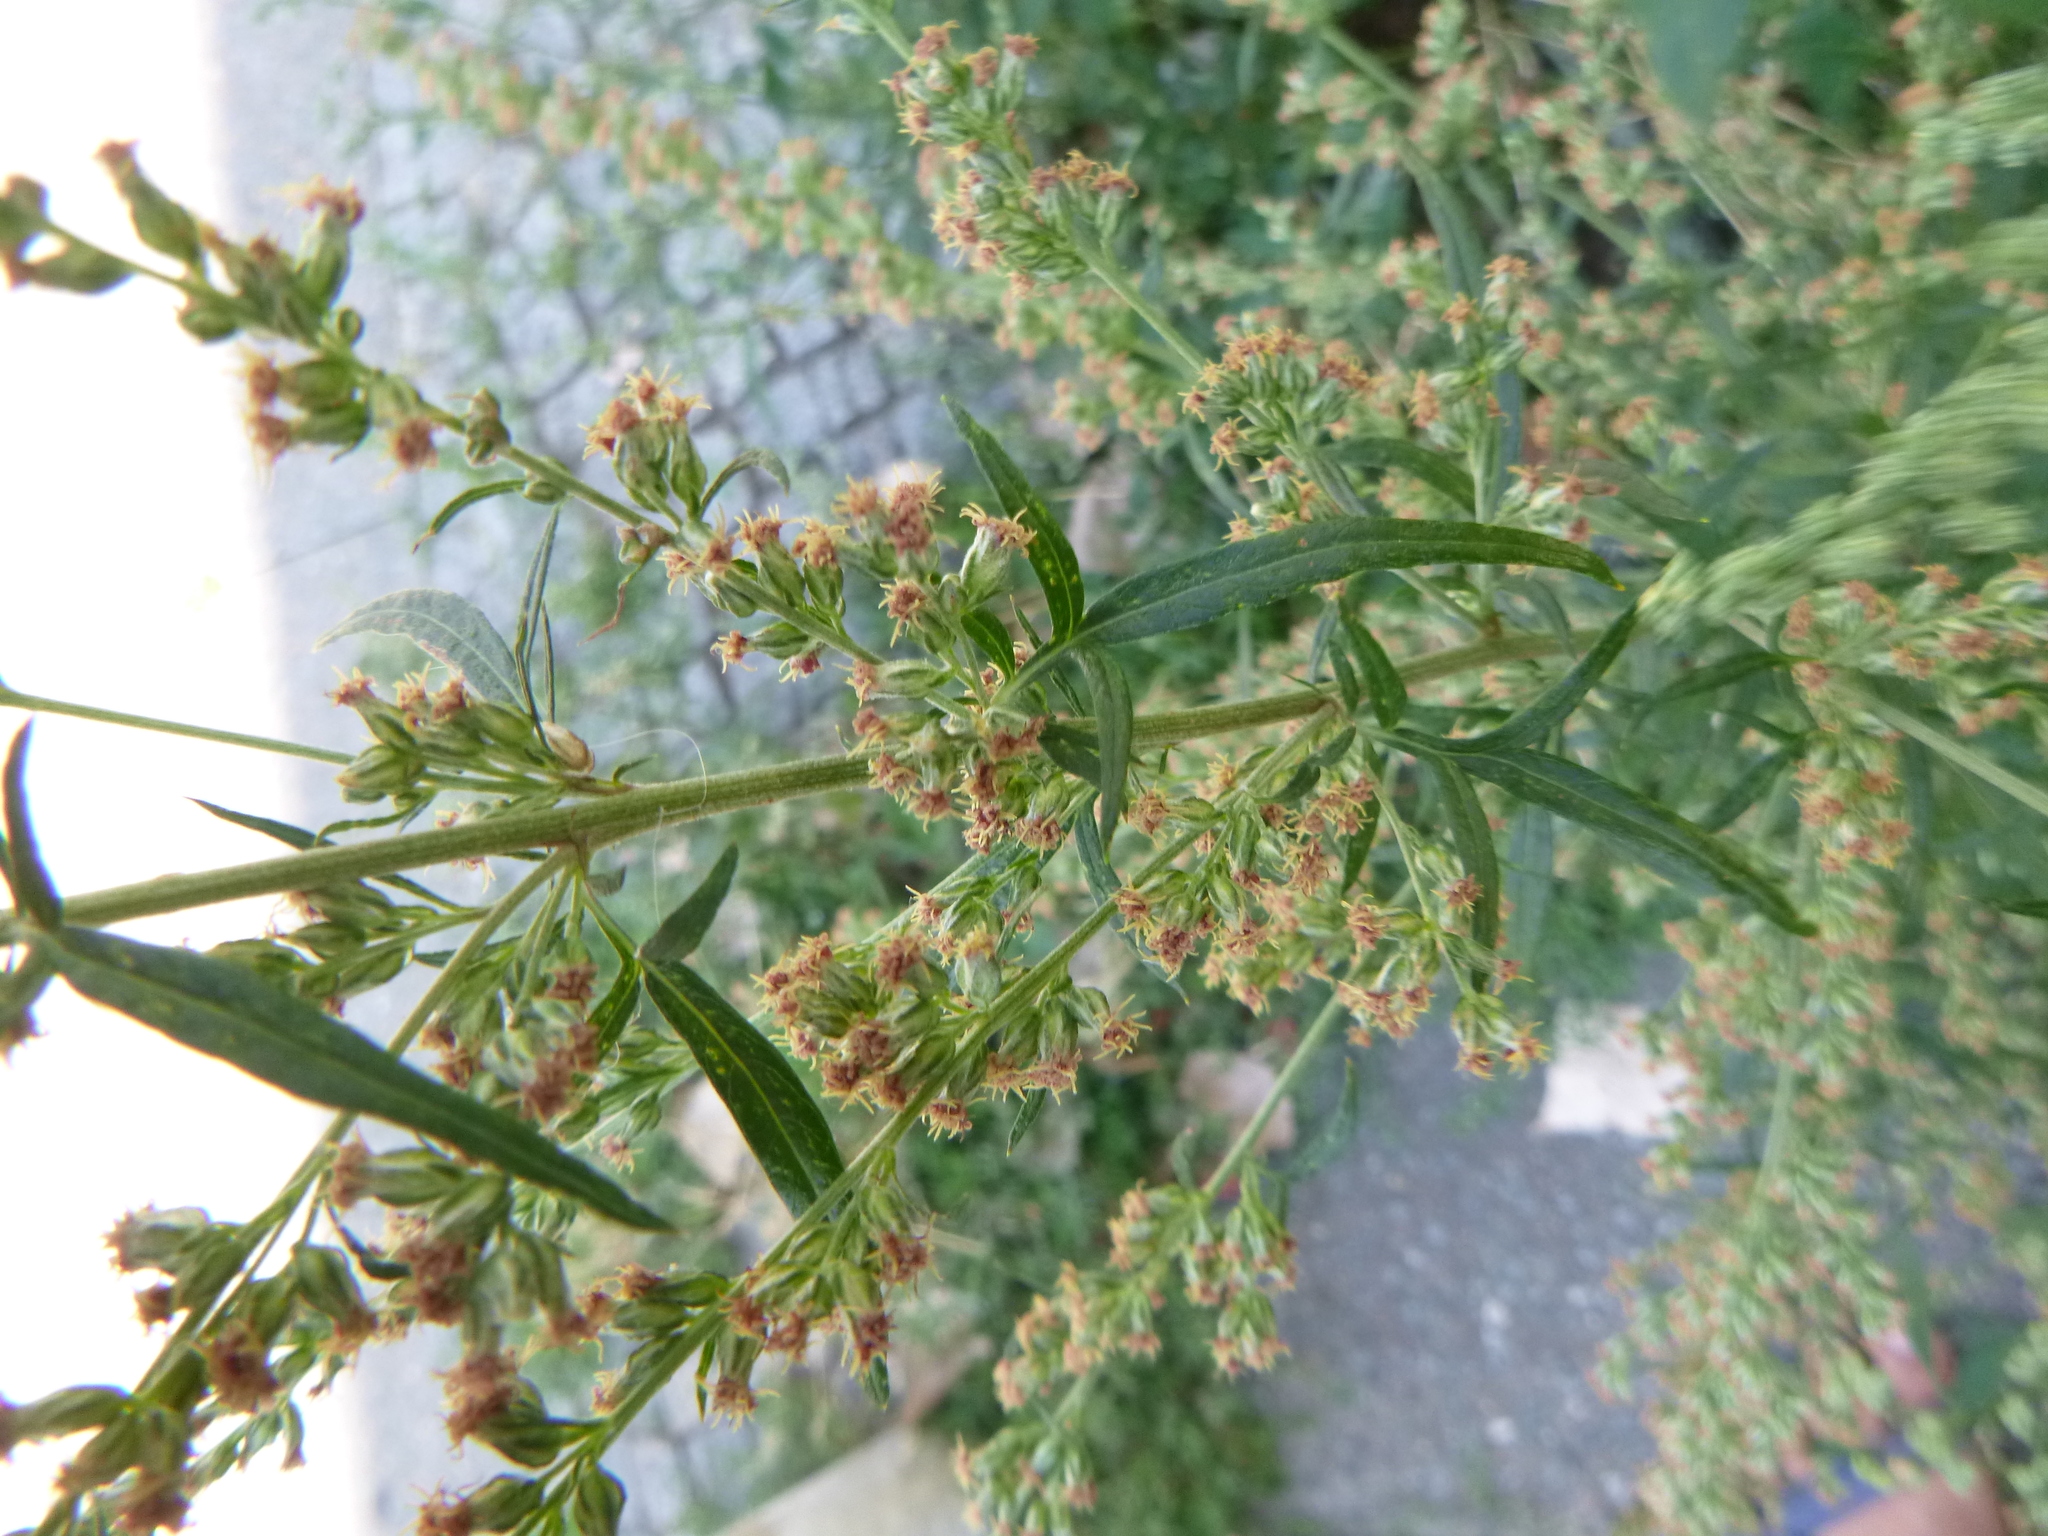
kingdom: Plantae
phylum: Tracheophyta
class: Magnoliopsida
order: Asterales
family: Asteraceae
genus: Artemisia
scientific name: Artemisia vulgaris
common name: Mugwort
